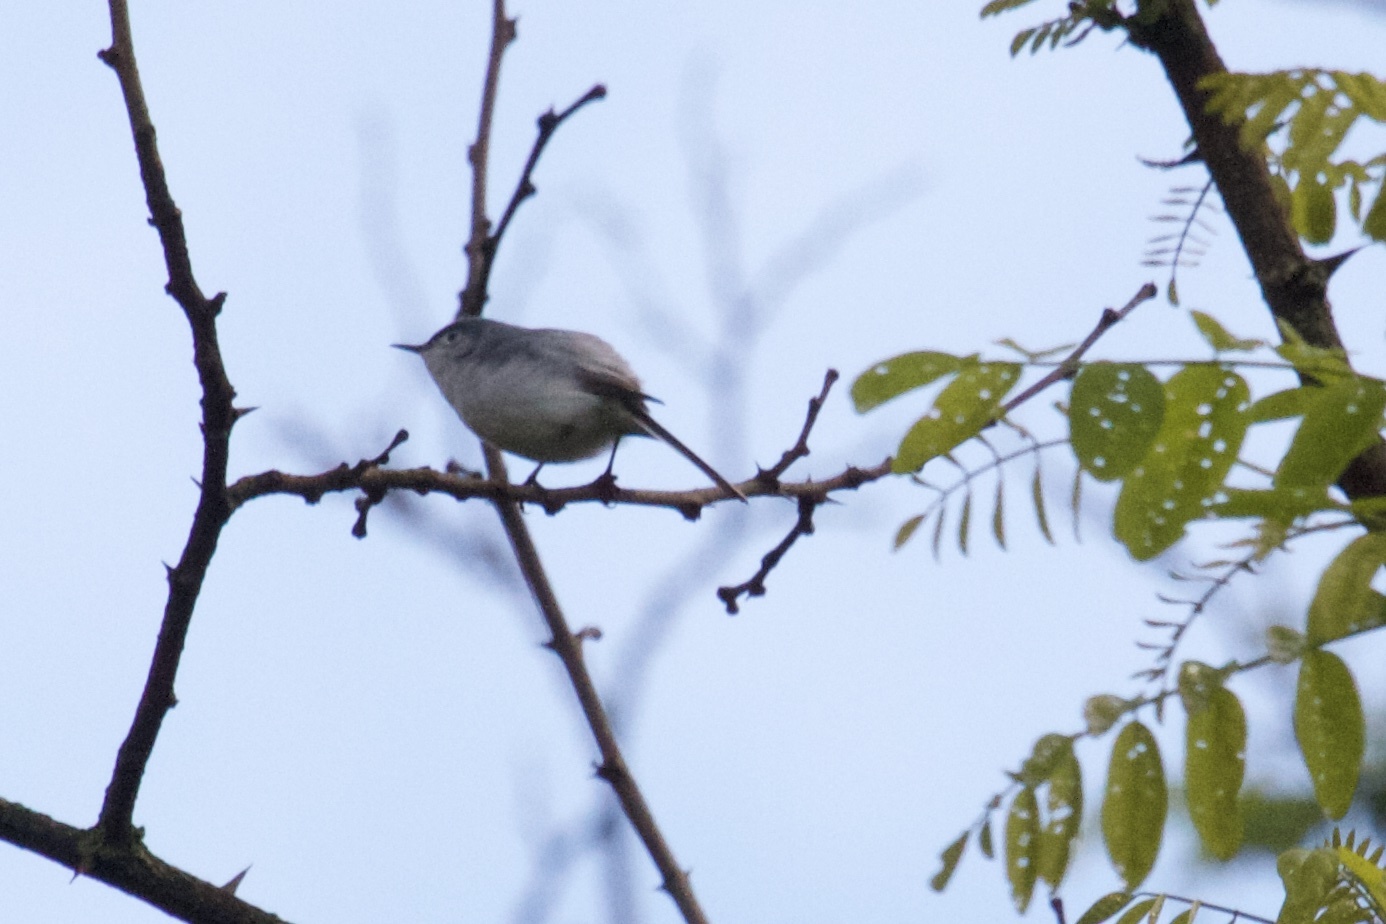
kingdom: Animalia
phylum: Chordata
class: Aves
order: Passeriformes
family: Polioptilidae
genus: Polioptila
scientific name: Polioptila caerulea
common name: Blue-gray gnatcatcher
